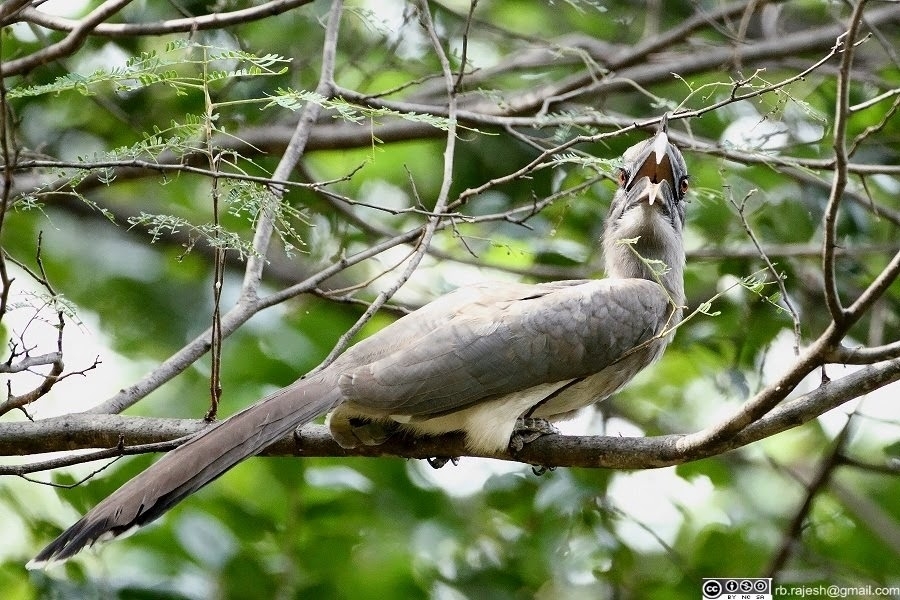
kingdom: Animalia
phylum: Chordata
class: Aves
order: Bucerotiformes
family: Bucerotidae
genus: Ocyceros
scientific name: Ocyceros birostris
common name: Indian grey hornbill
